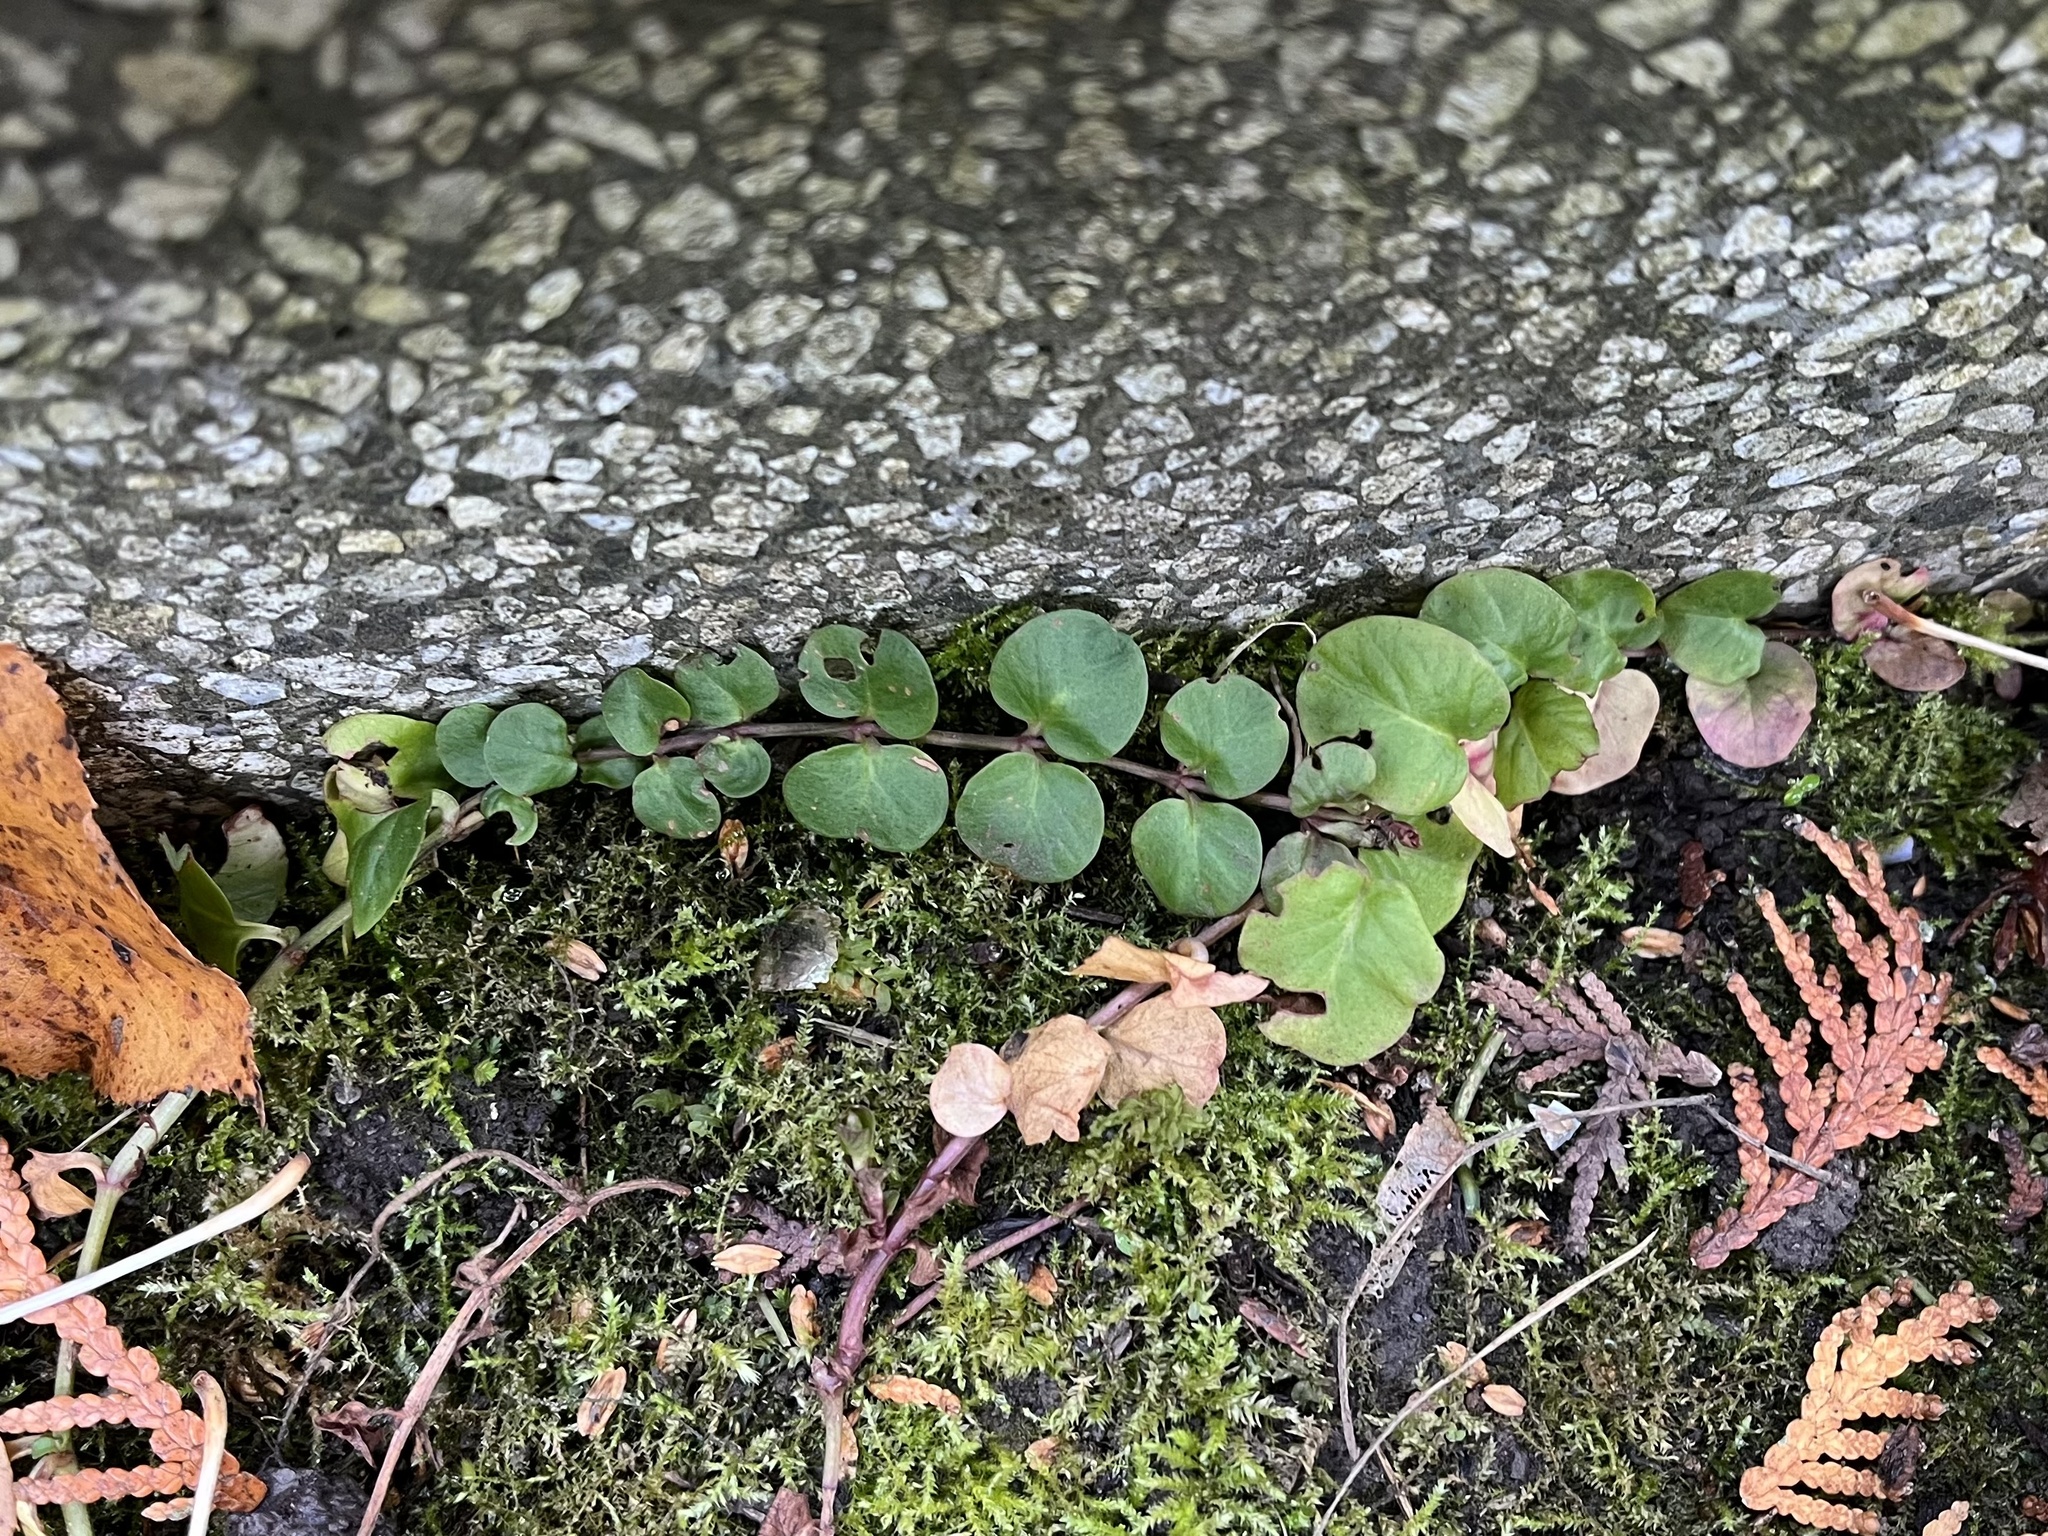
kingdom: Plantae
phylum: Tracheophyta
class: Magnoliopsida
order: Ericales
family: Primulaceae
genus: Lysimachia
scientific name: Lysimachia nummularia
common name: Moneywort
